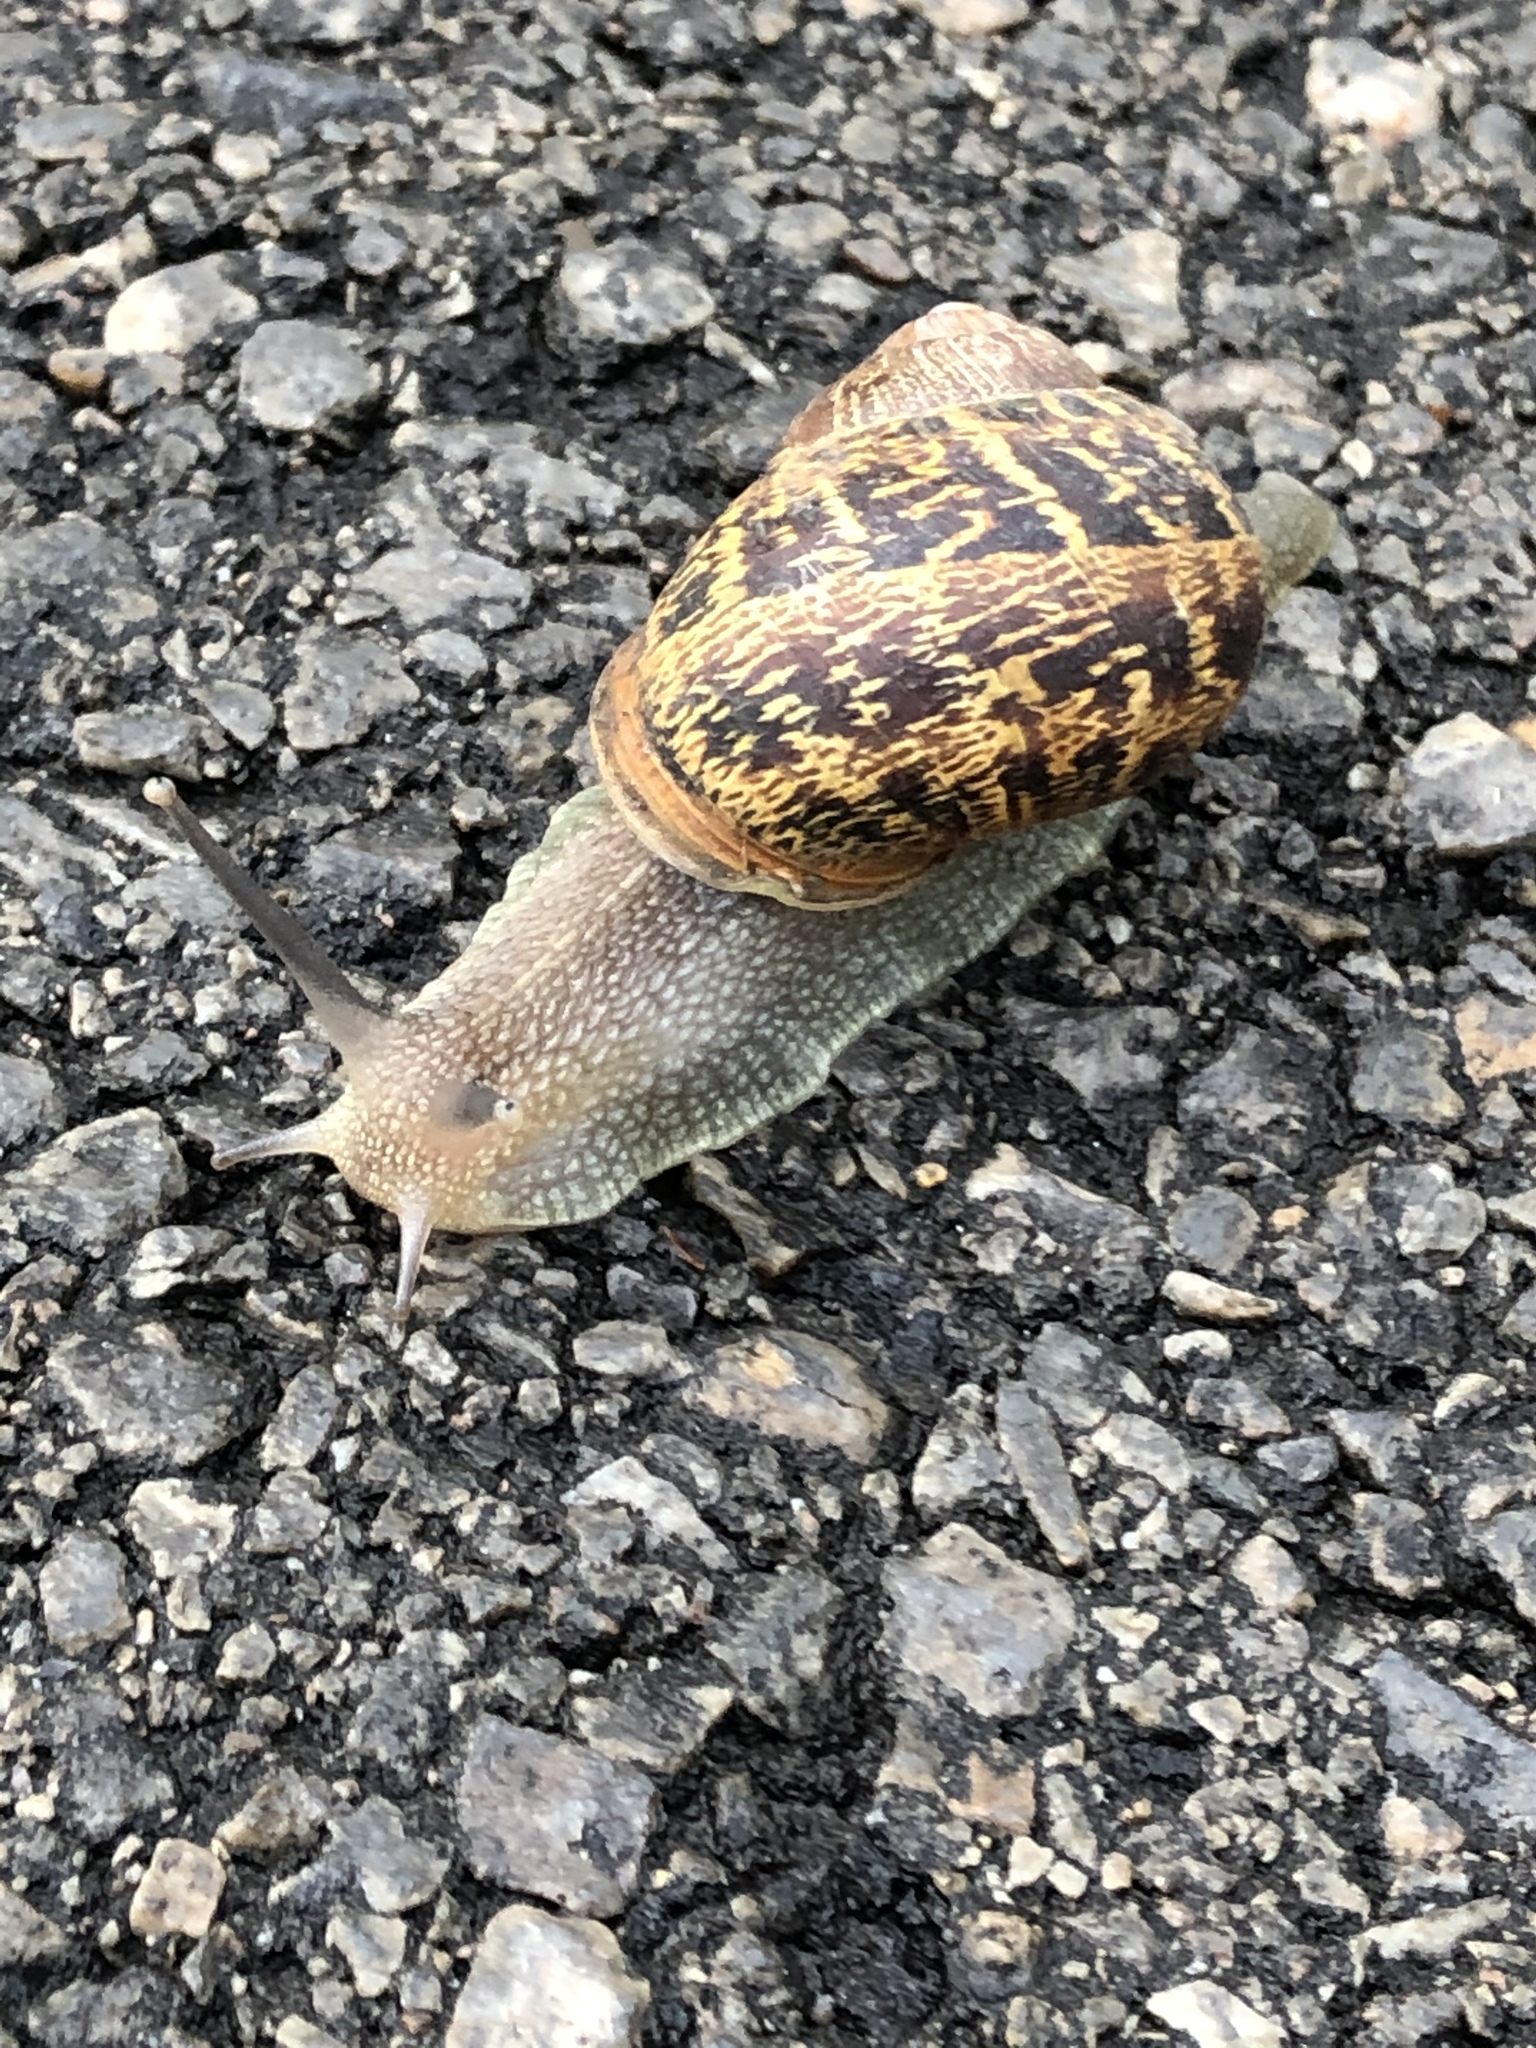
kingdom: Animalia
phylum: Mollusca
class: Gastropoda
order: Stylommatophora
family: Helicidae
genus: Cornu
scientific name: Cornu aspersum
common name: Brown garden snail
